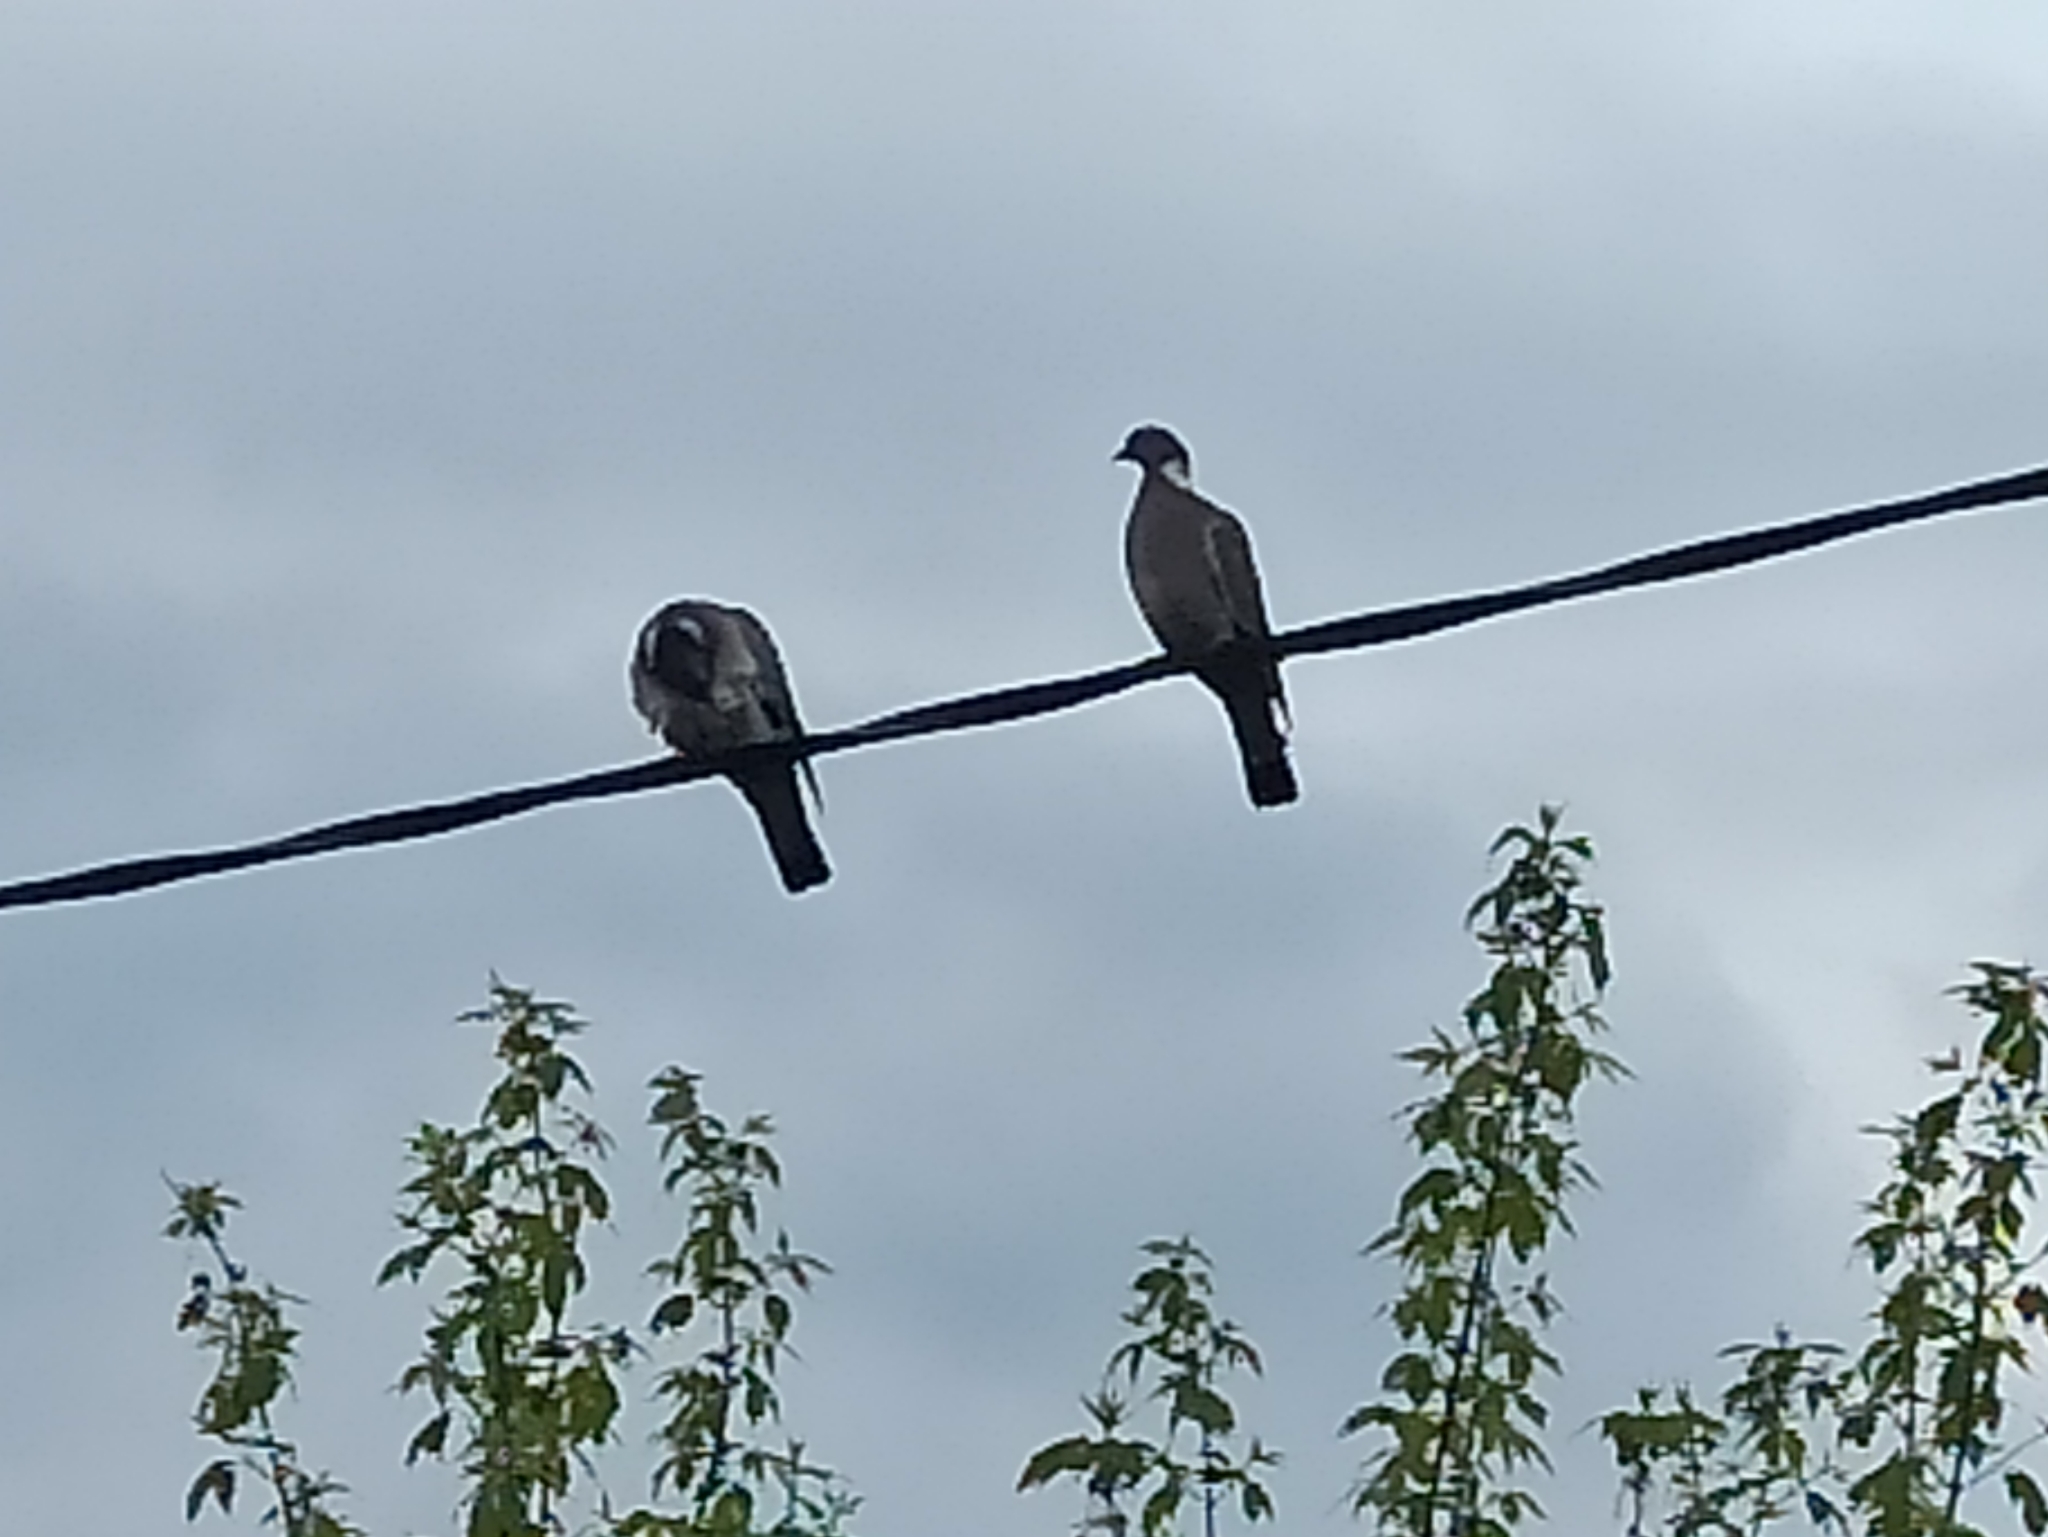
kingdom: Animalia
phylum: Chordata
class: Aves
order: Columbiformes
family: Columbidae
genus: Columba
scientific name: Columba palumbus
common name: Common wood pigeon
